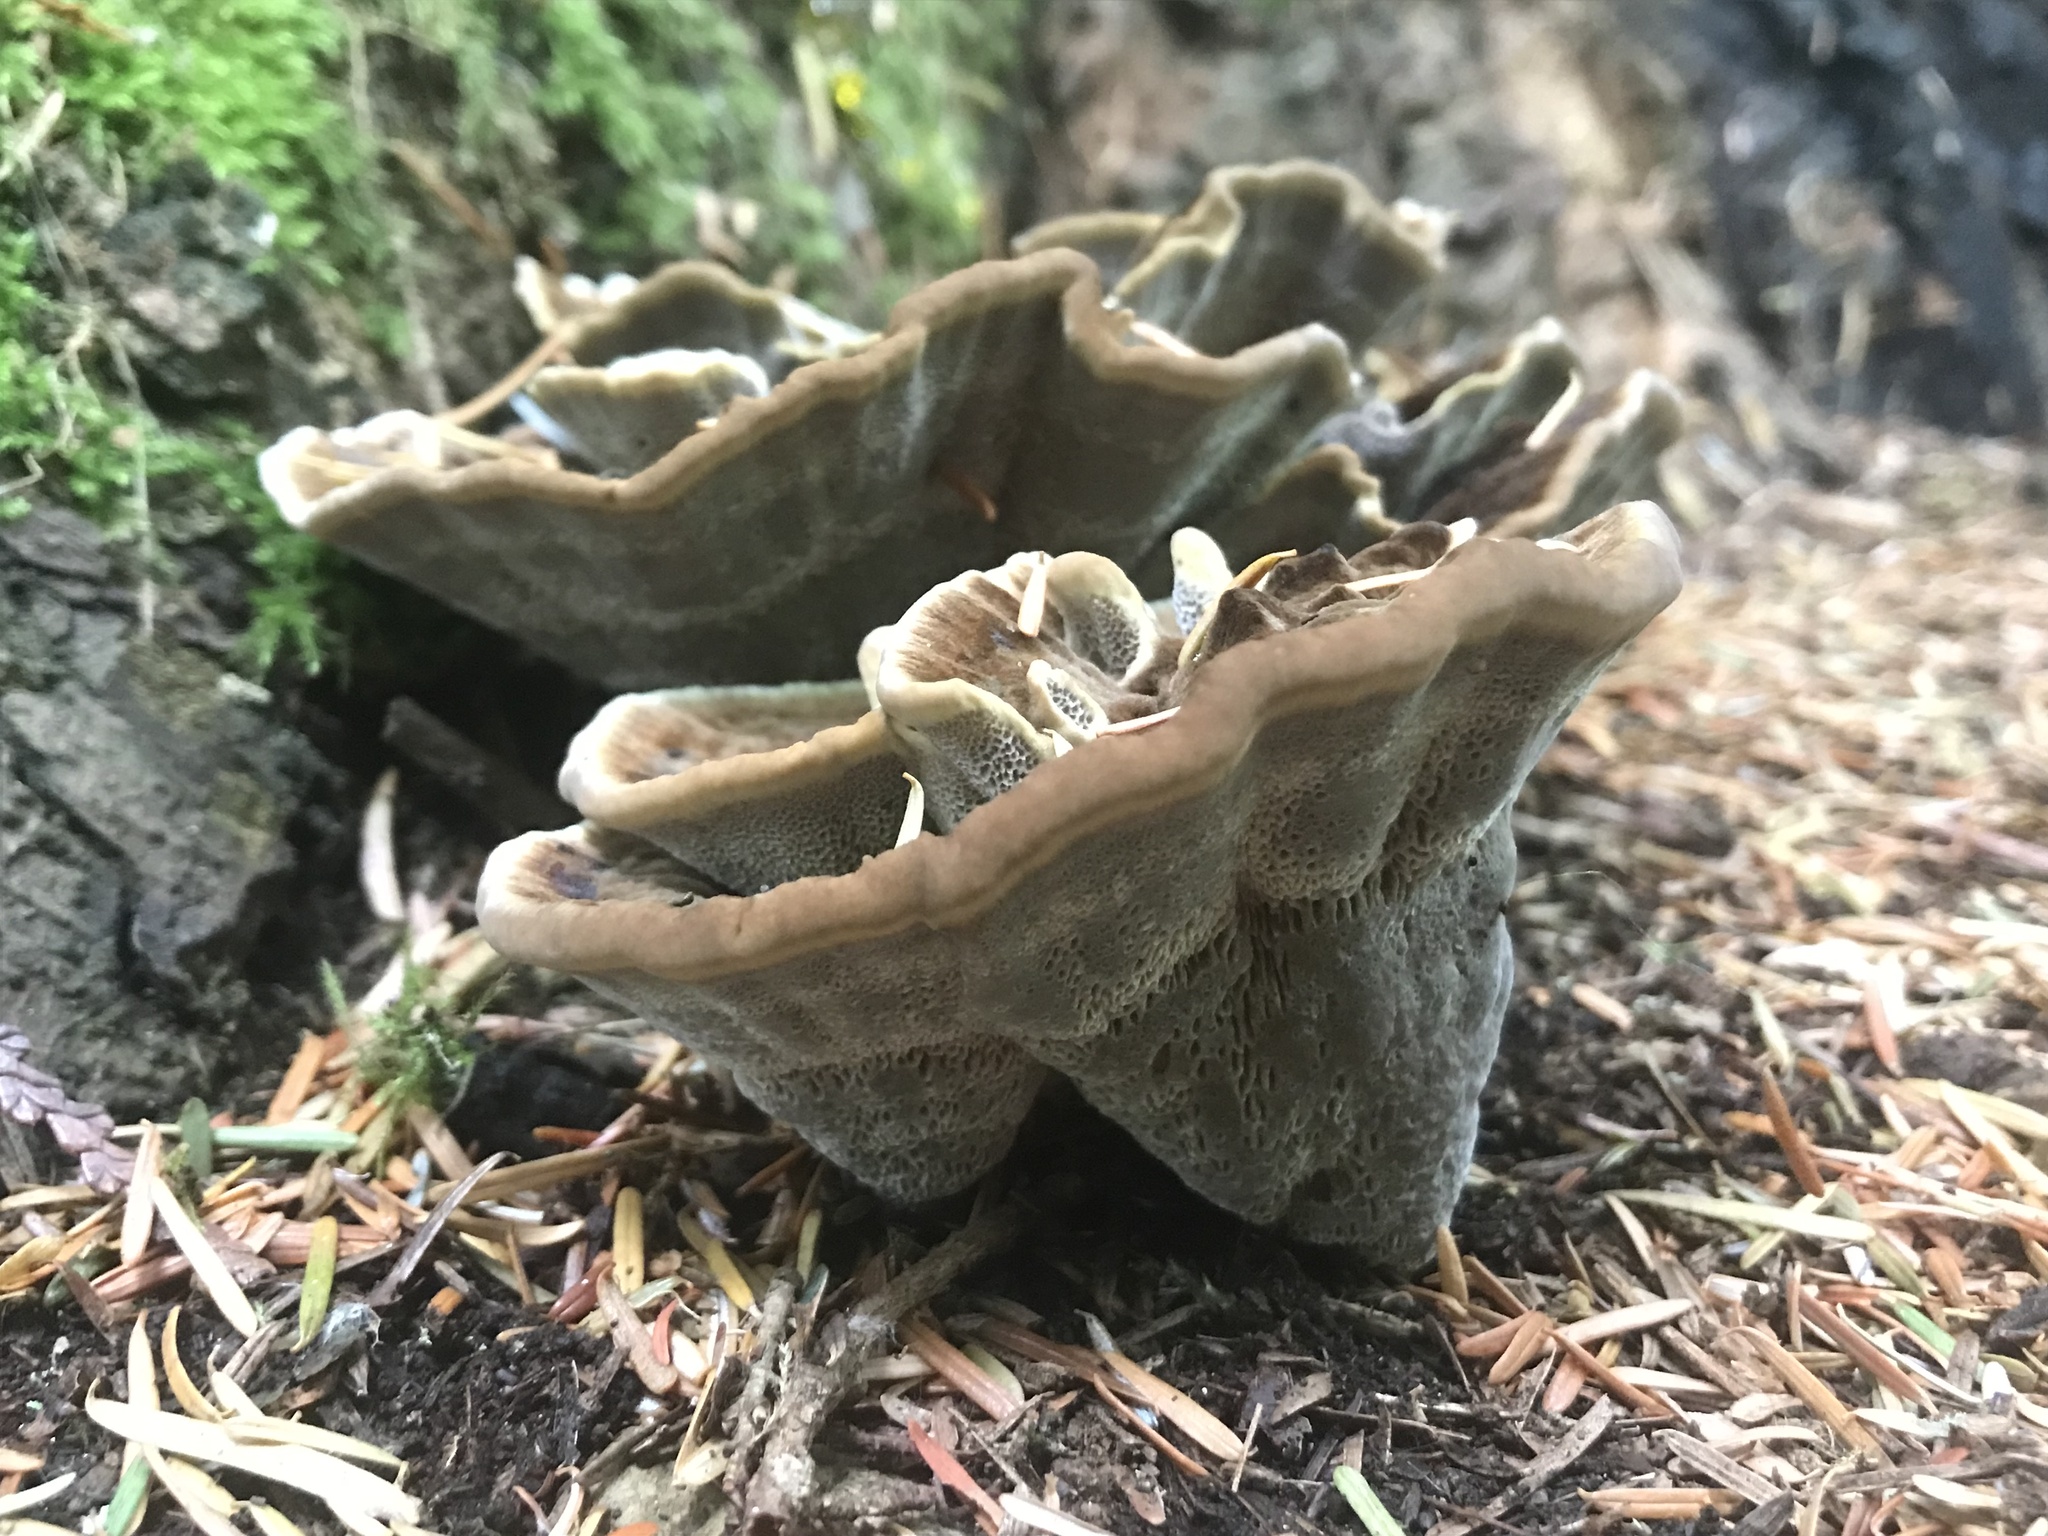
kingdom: Fungi
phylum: Basidiomycota
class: Agaricomycetes
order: Polyporales
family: Laetiporaceae
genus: Phaeolus
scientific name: Phaeolus schweinitzii
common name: Dyer's mazegill
